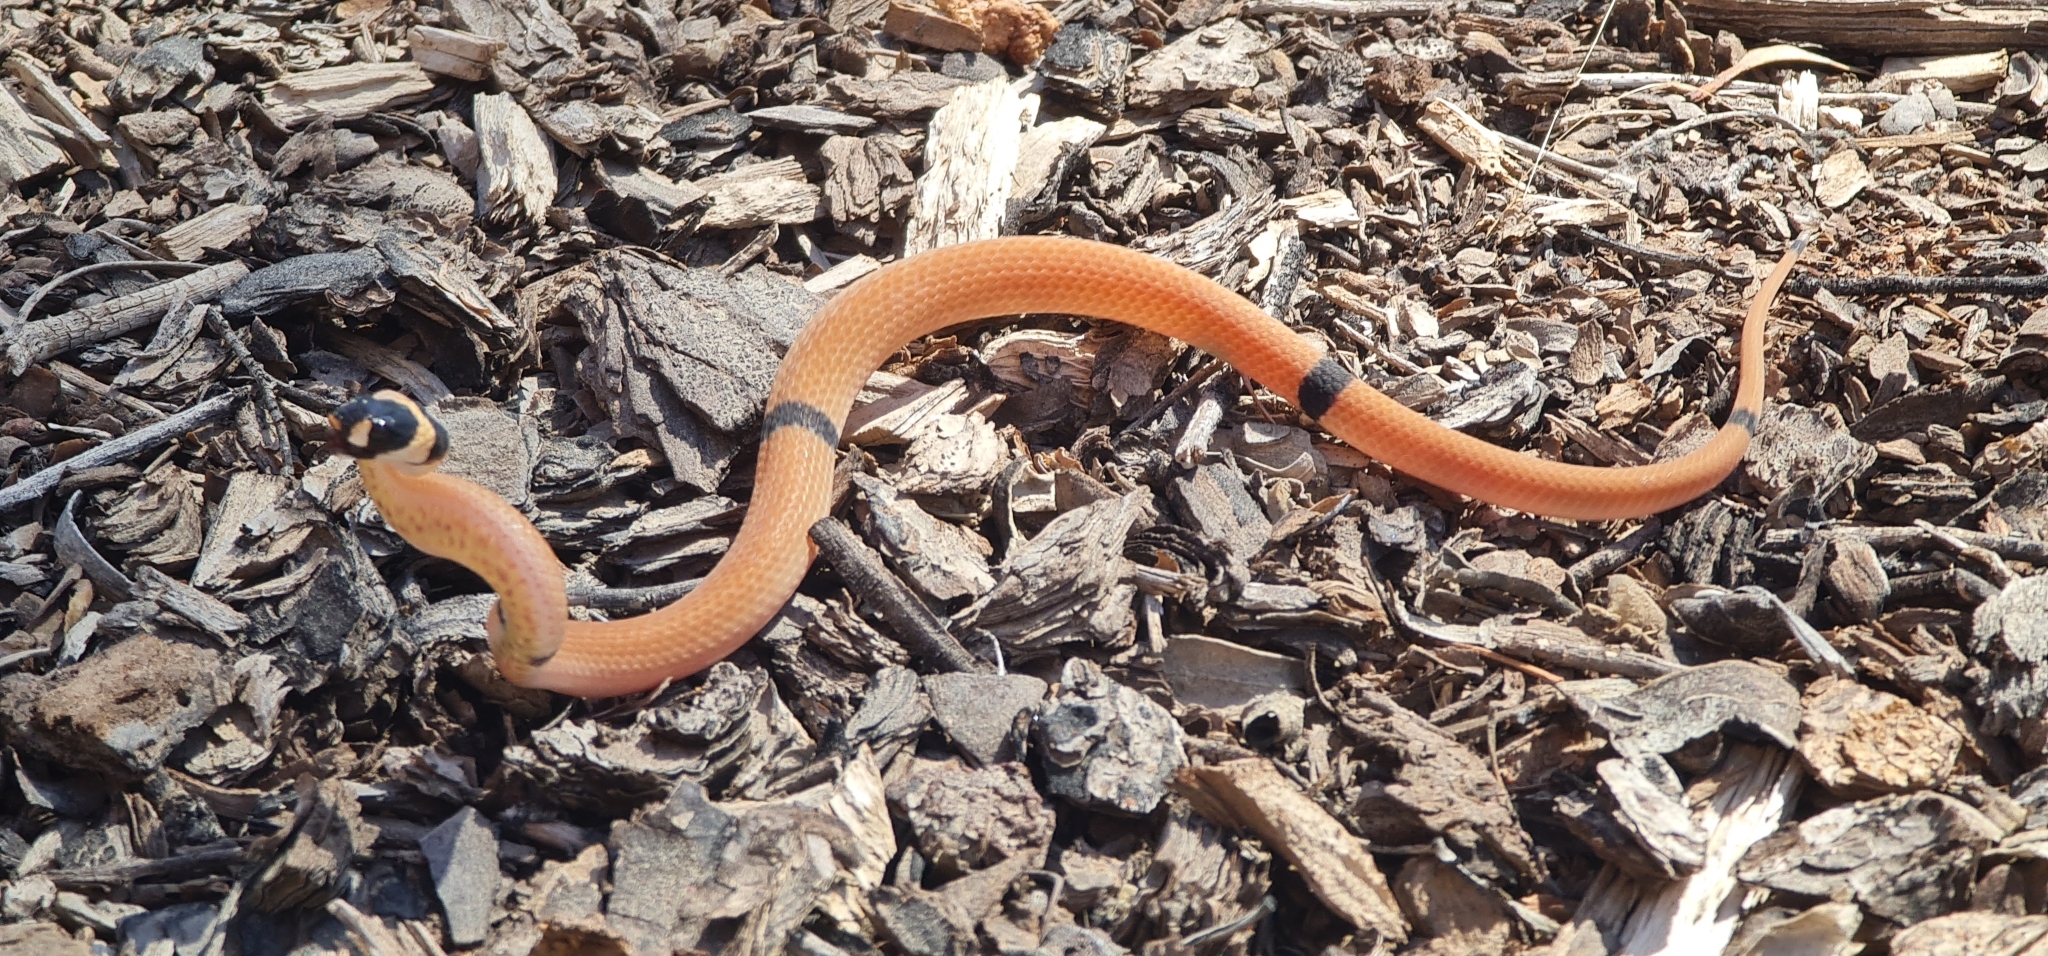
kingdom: Animalia
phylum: Chordata
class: Squamata
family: Elapidae
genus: Pseudonaja
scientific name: Pseudonaja modesta
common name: Ringed brown snake
